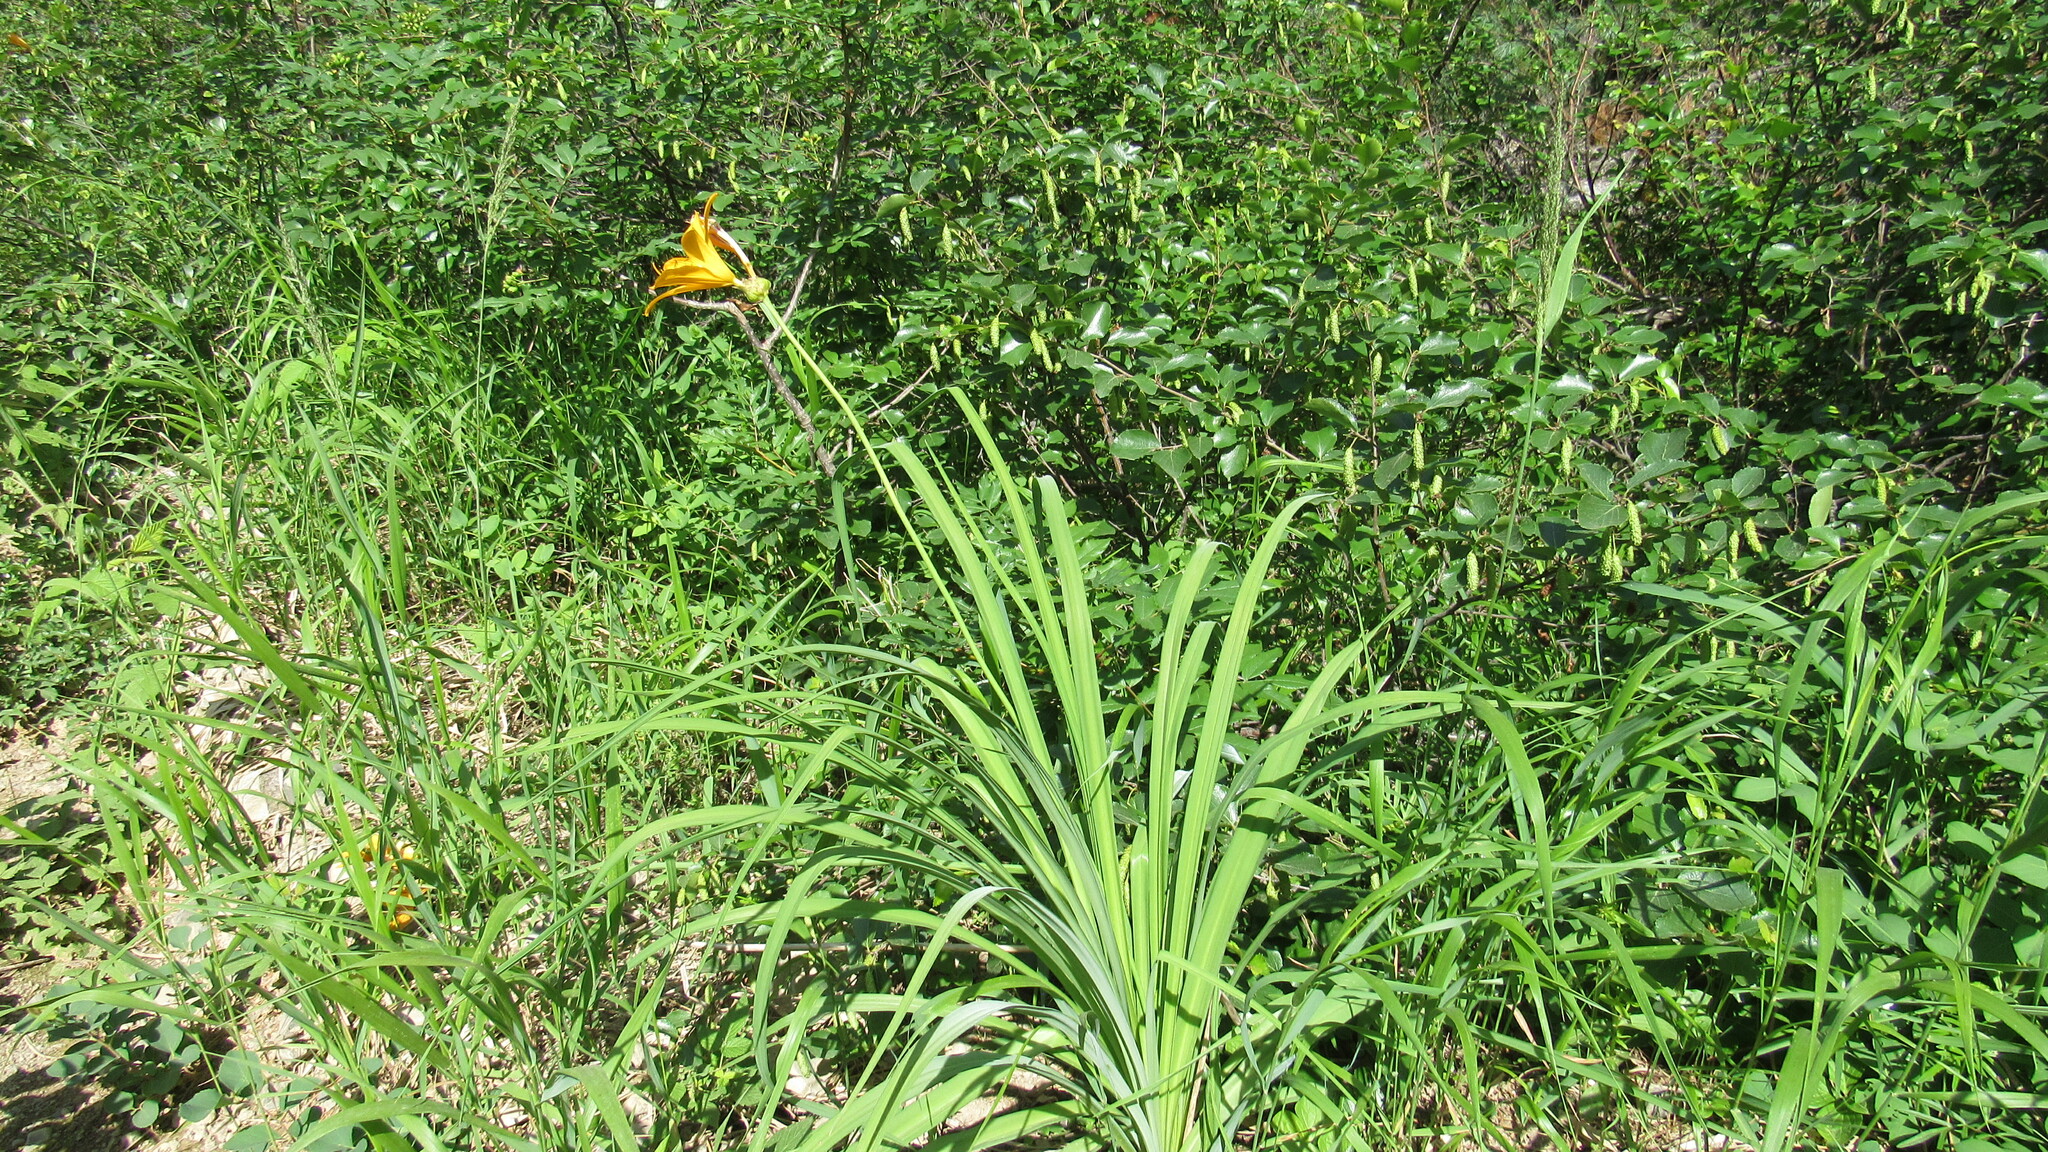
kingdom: Plantae
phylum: Tracheophyta
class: Liliopsida
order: Asparagales
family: Asphodelaceae
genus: Hemerocallis
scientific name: Hemerocallis middendorffii
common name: Amur day-lily
